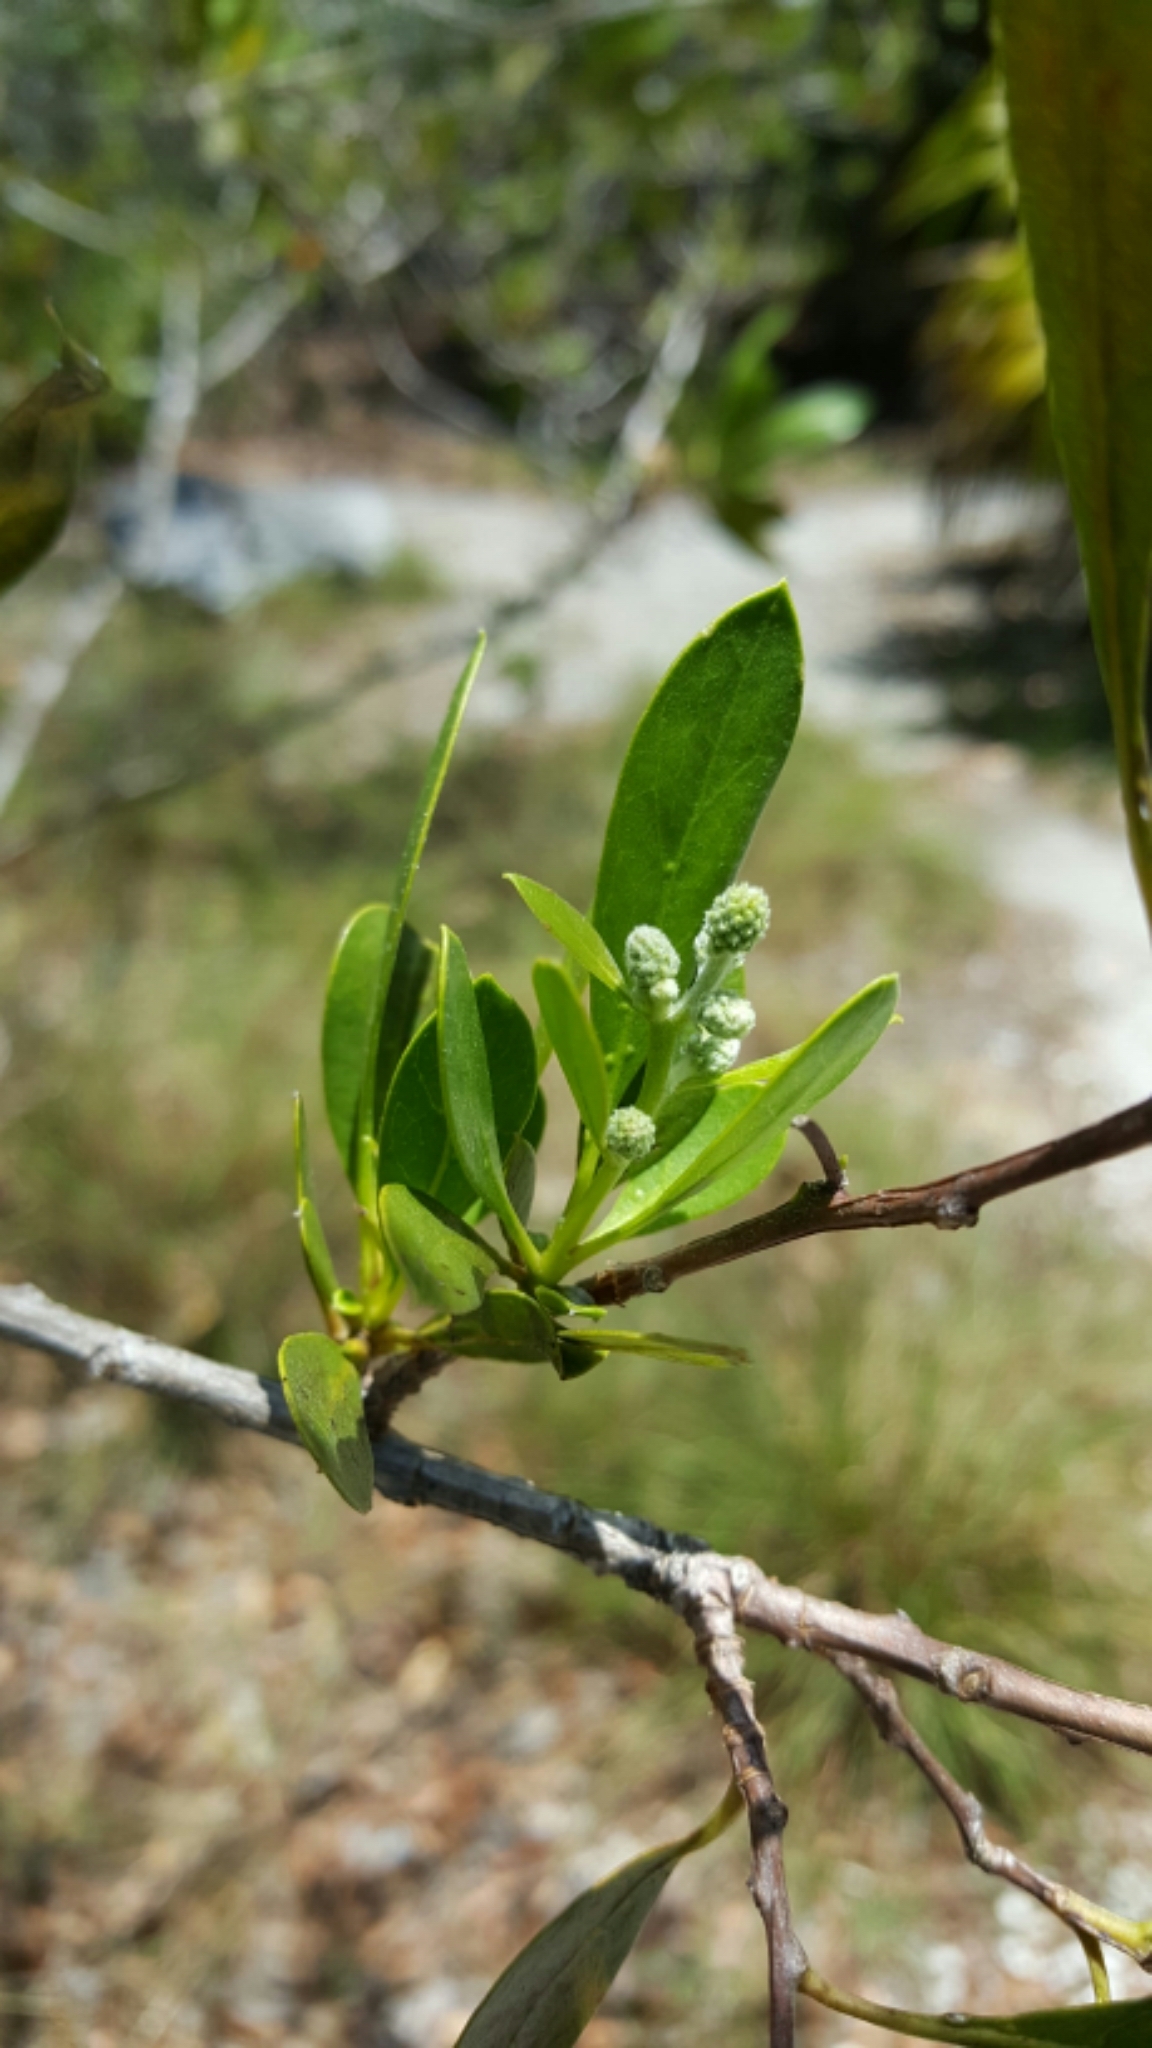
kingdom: Plantae
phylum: Tracheophyta
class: Magnoliopsida
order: Myrtales
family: Combretaceae
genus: Conocarpus
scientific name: Conocarpus erectus
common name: Button mangrove
